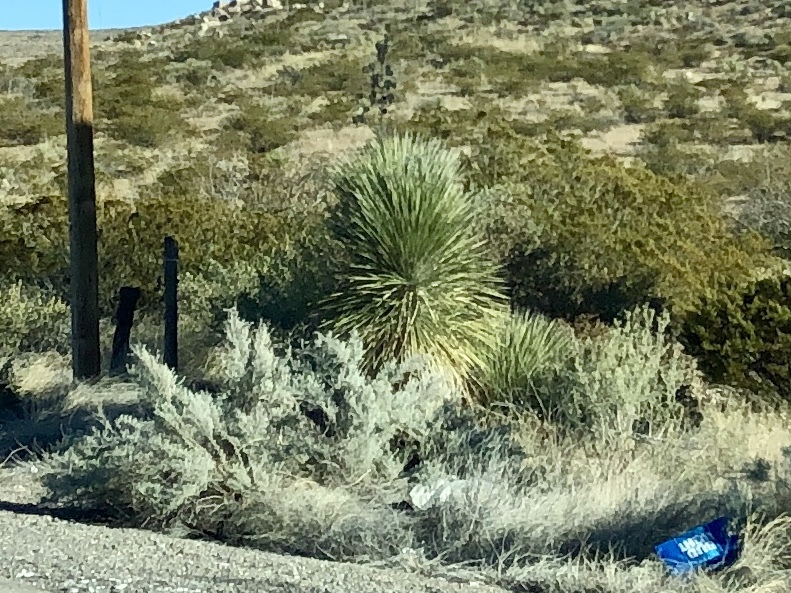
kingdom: Plantae
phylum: Tracheophyta
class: Liliopsida
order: Asparagales
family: Asparagaceae
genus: Yucca
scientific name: Yucca elata
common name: Palmella
